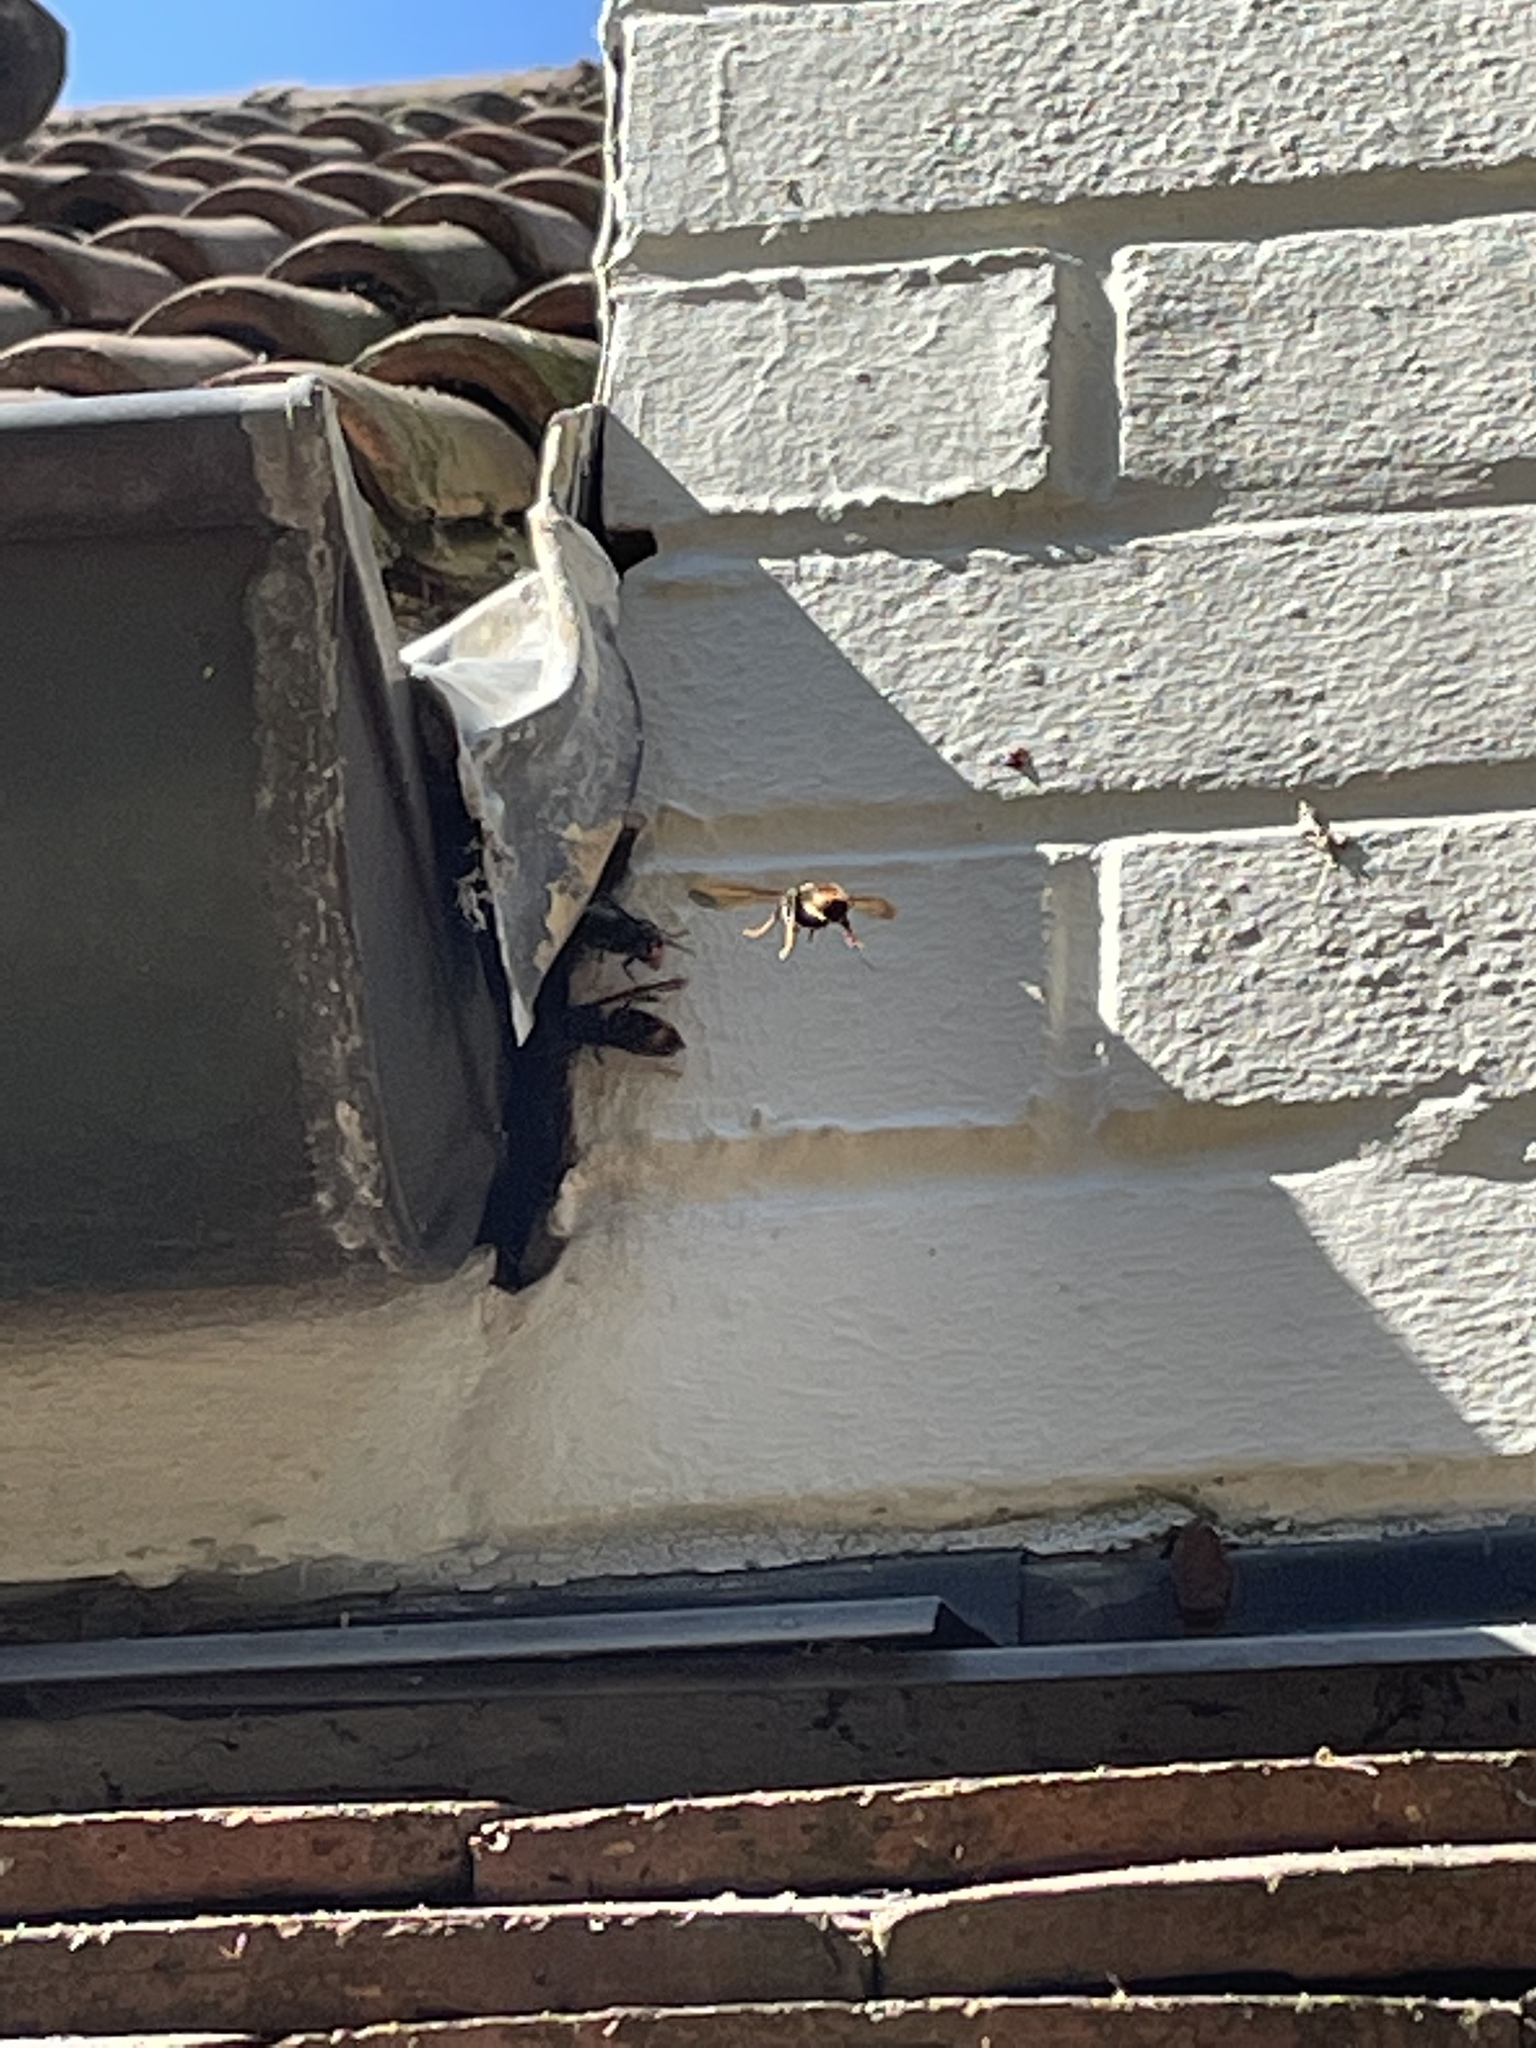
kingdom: Animalia
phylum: Arthropoda
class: Insecta
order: Hymenoptera
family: Vespidae
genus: Vespa
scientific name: Vespa velutina
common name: Asian hornet
